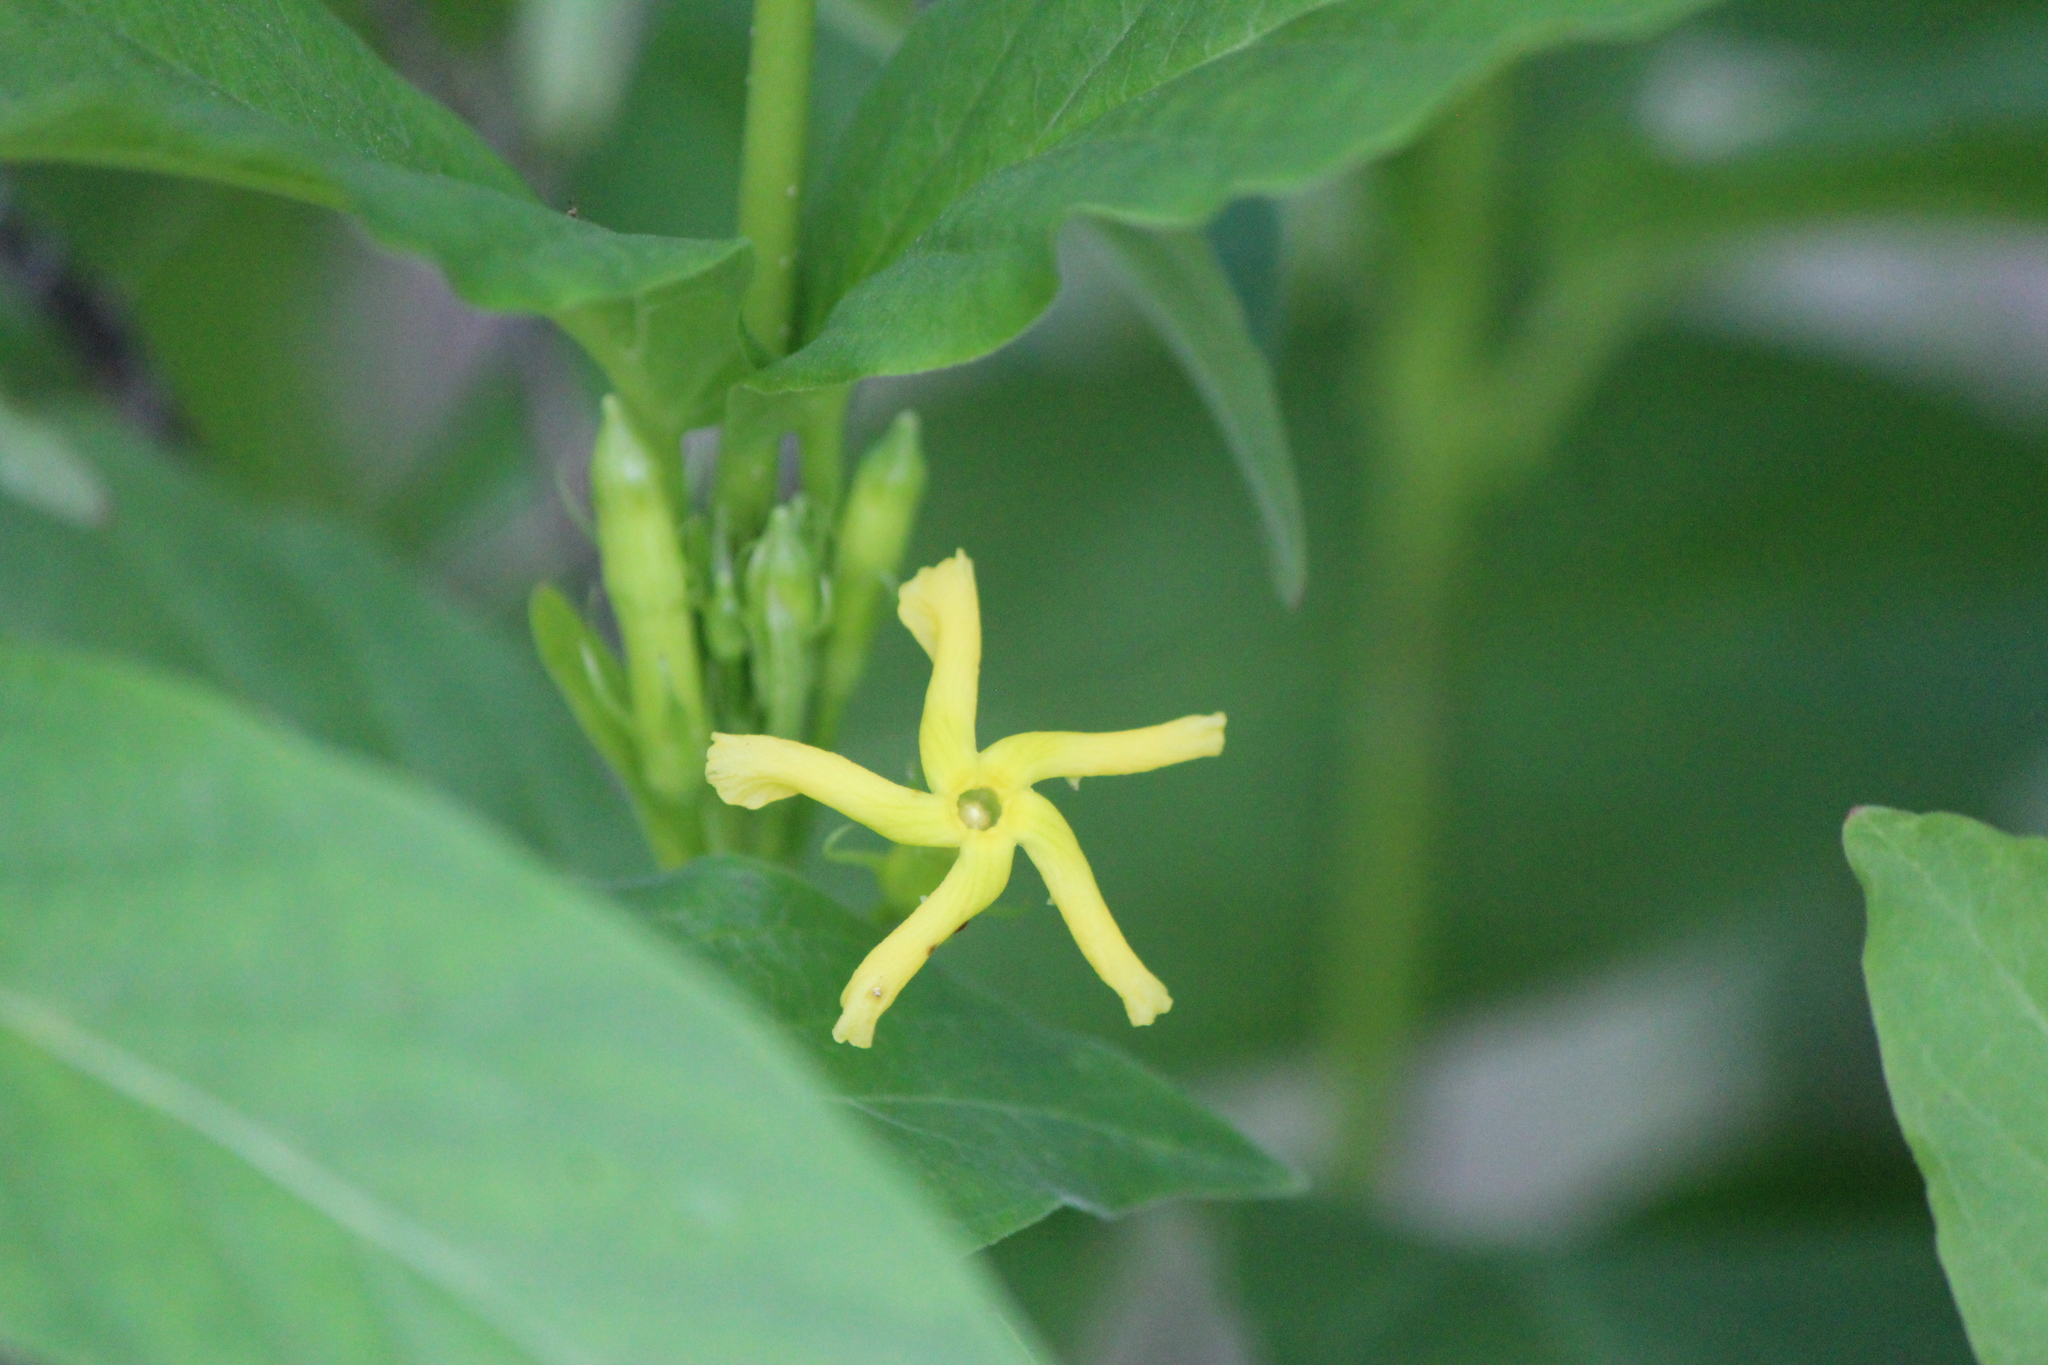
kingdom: Plantae
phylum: Tracheophyta
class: Magnoliopsida
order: Gentianales
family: Apocynaceae
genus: Mandevilla
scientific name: Mandevilla foliosa
